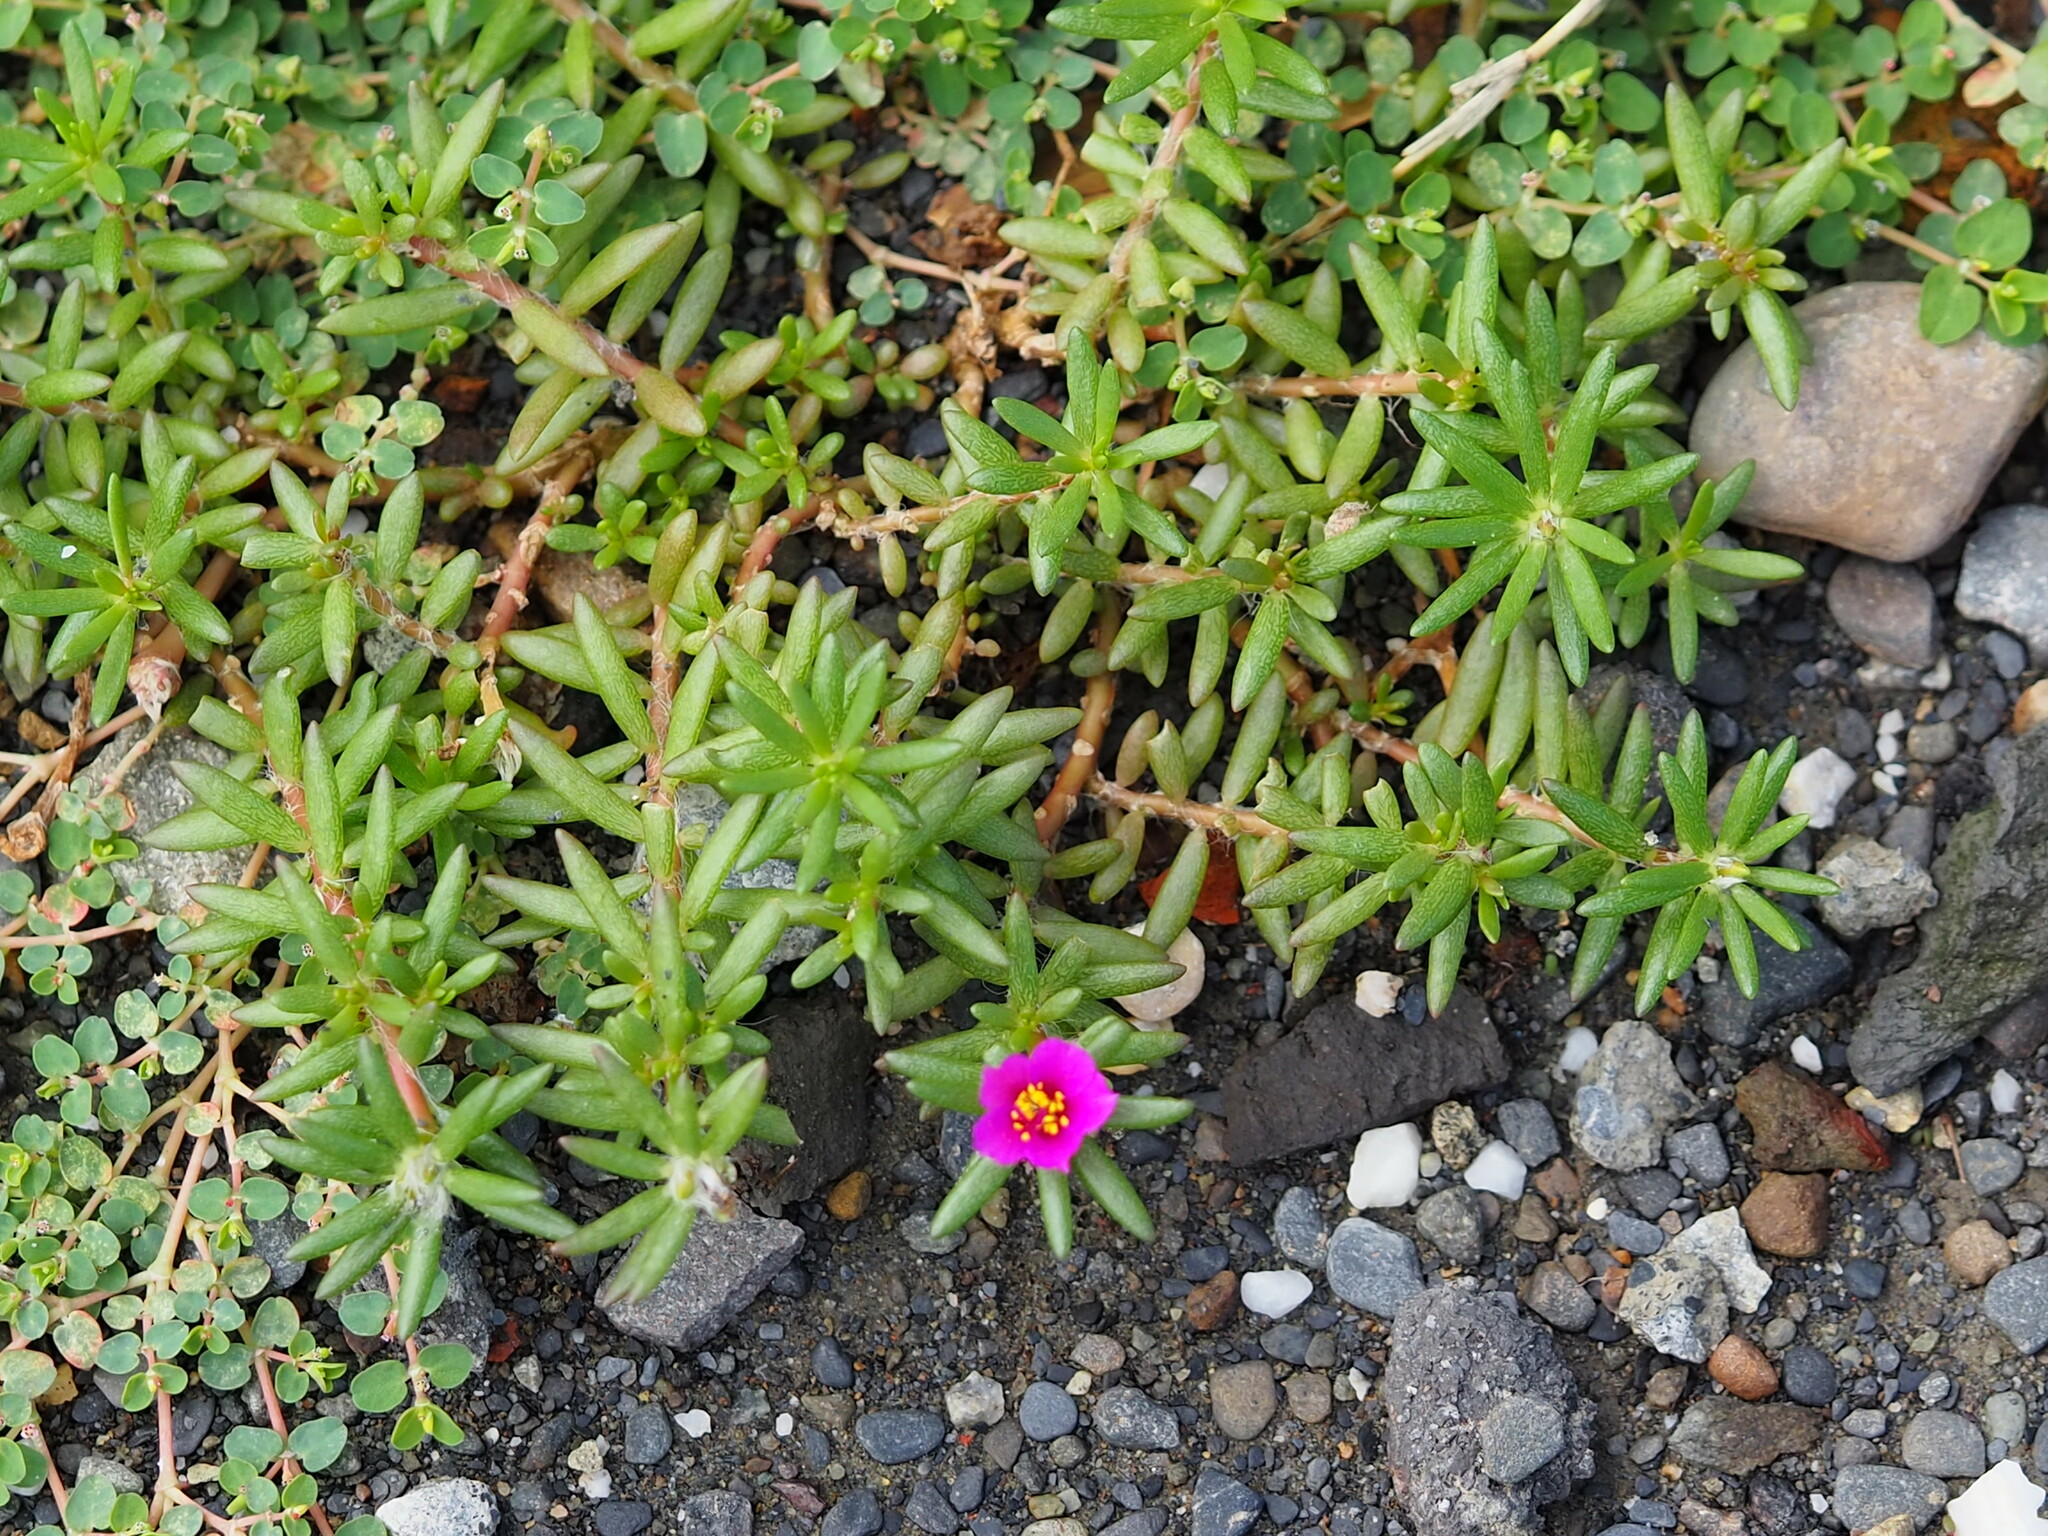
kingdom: Plantae
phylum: Tracheophyta
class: Magnoliopsida
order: Caryophyllales
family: Portulacaceae
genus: Portulaca
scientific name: Portulaca pilosa
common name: Kiss me quick
